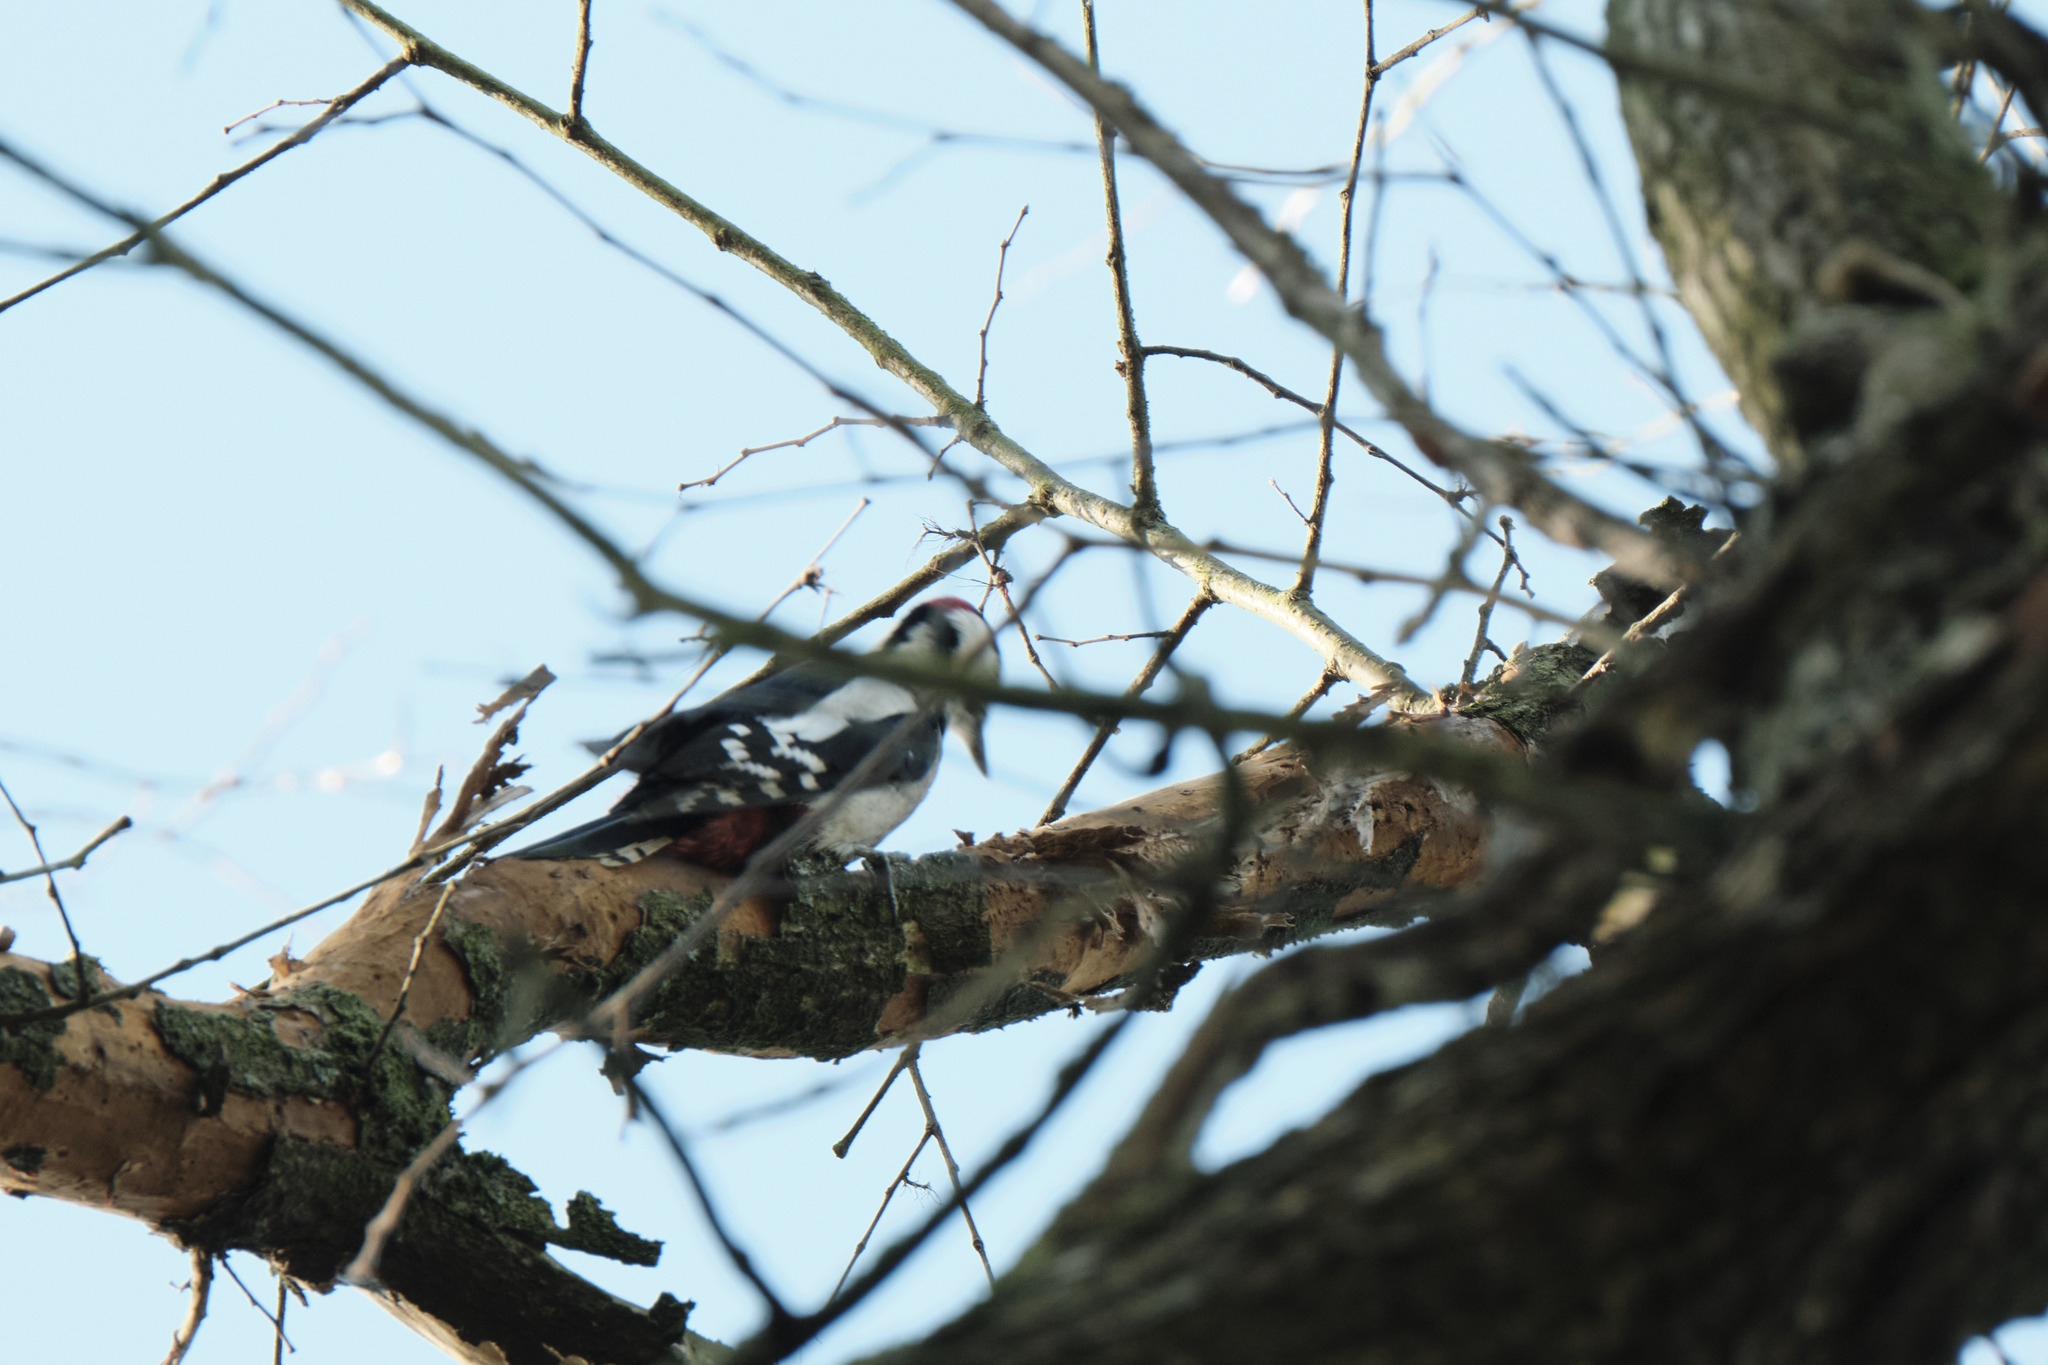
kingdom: Animalia
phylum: Chordata
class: Aves
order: Piciformes
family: Picidae
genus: Dendrocopos
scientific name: Dendrocopos major
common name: Great spotted woodpecker
